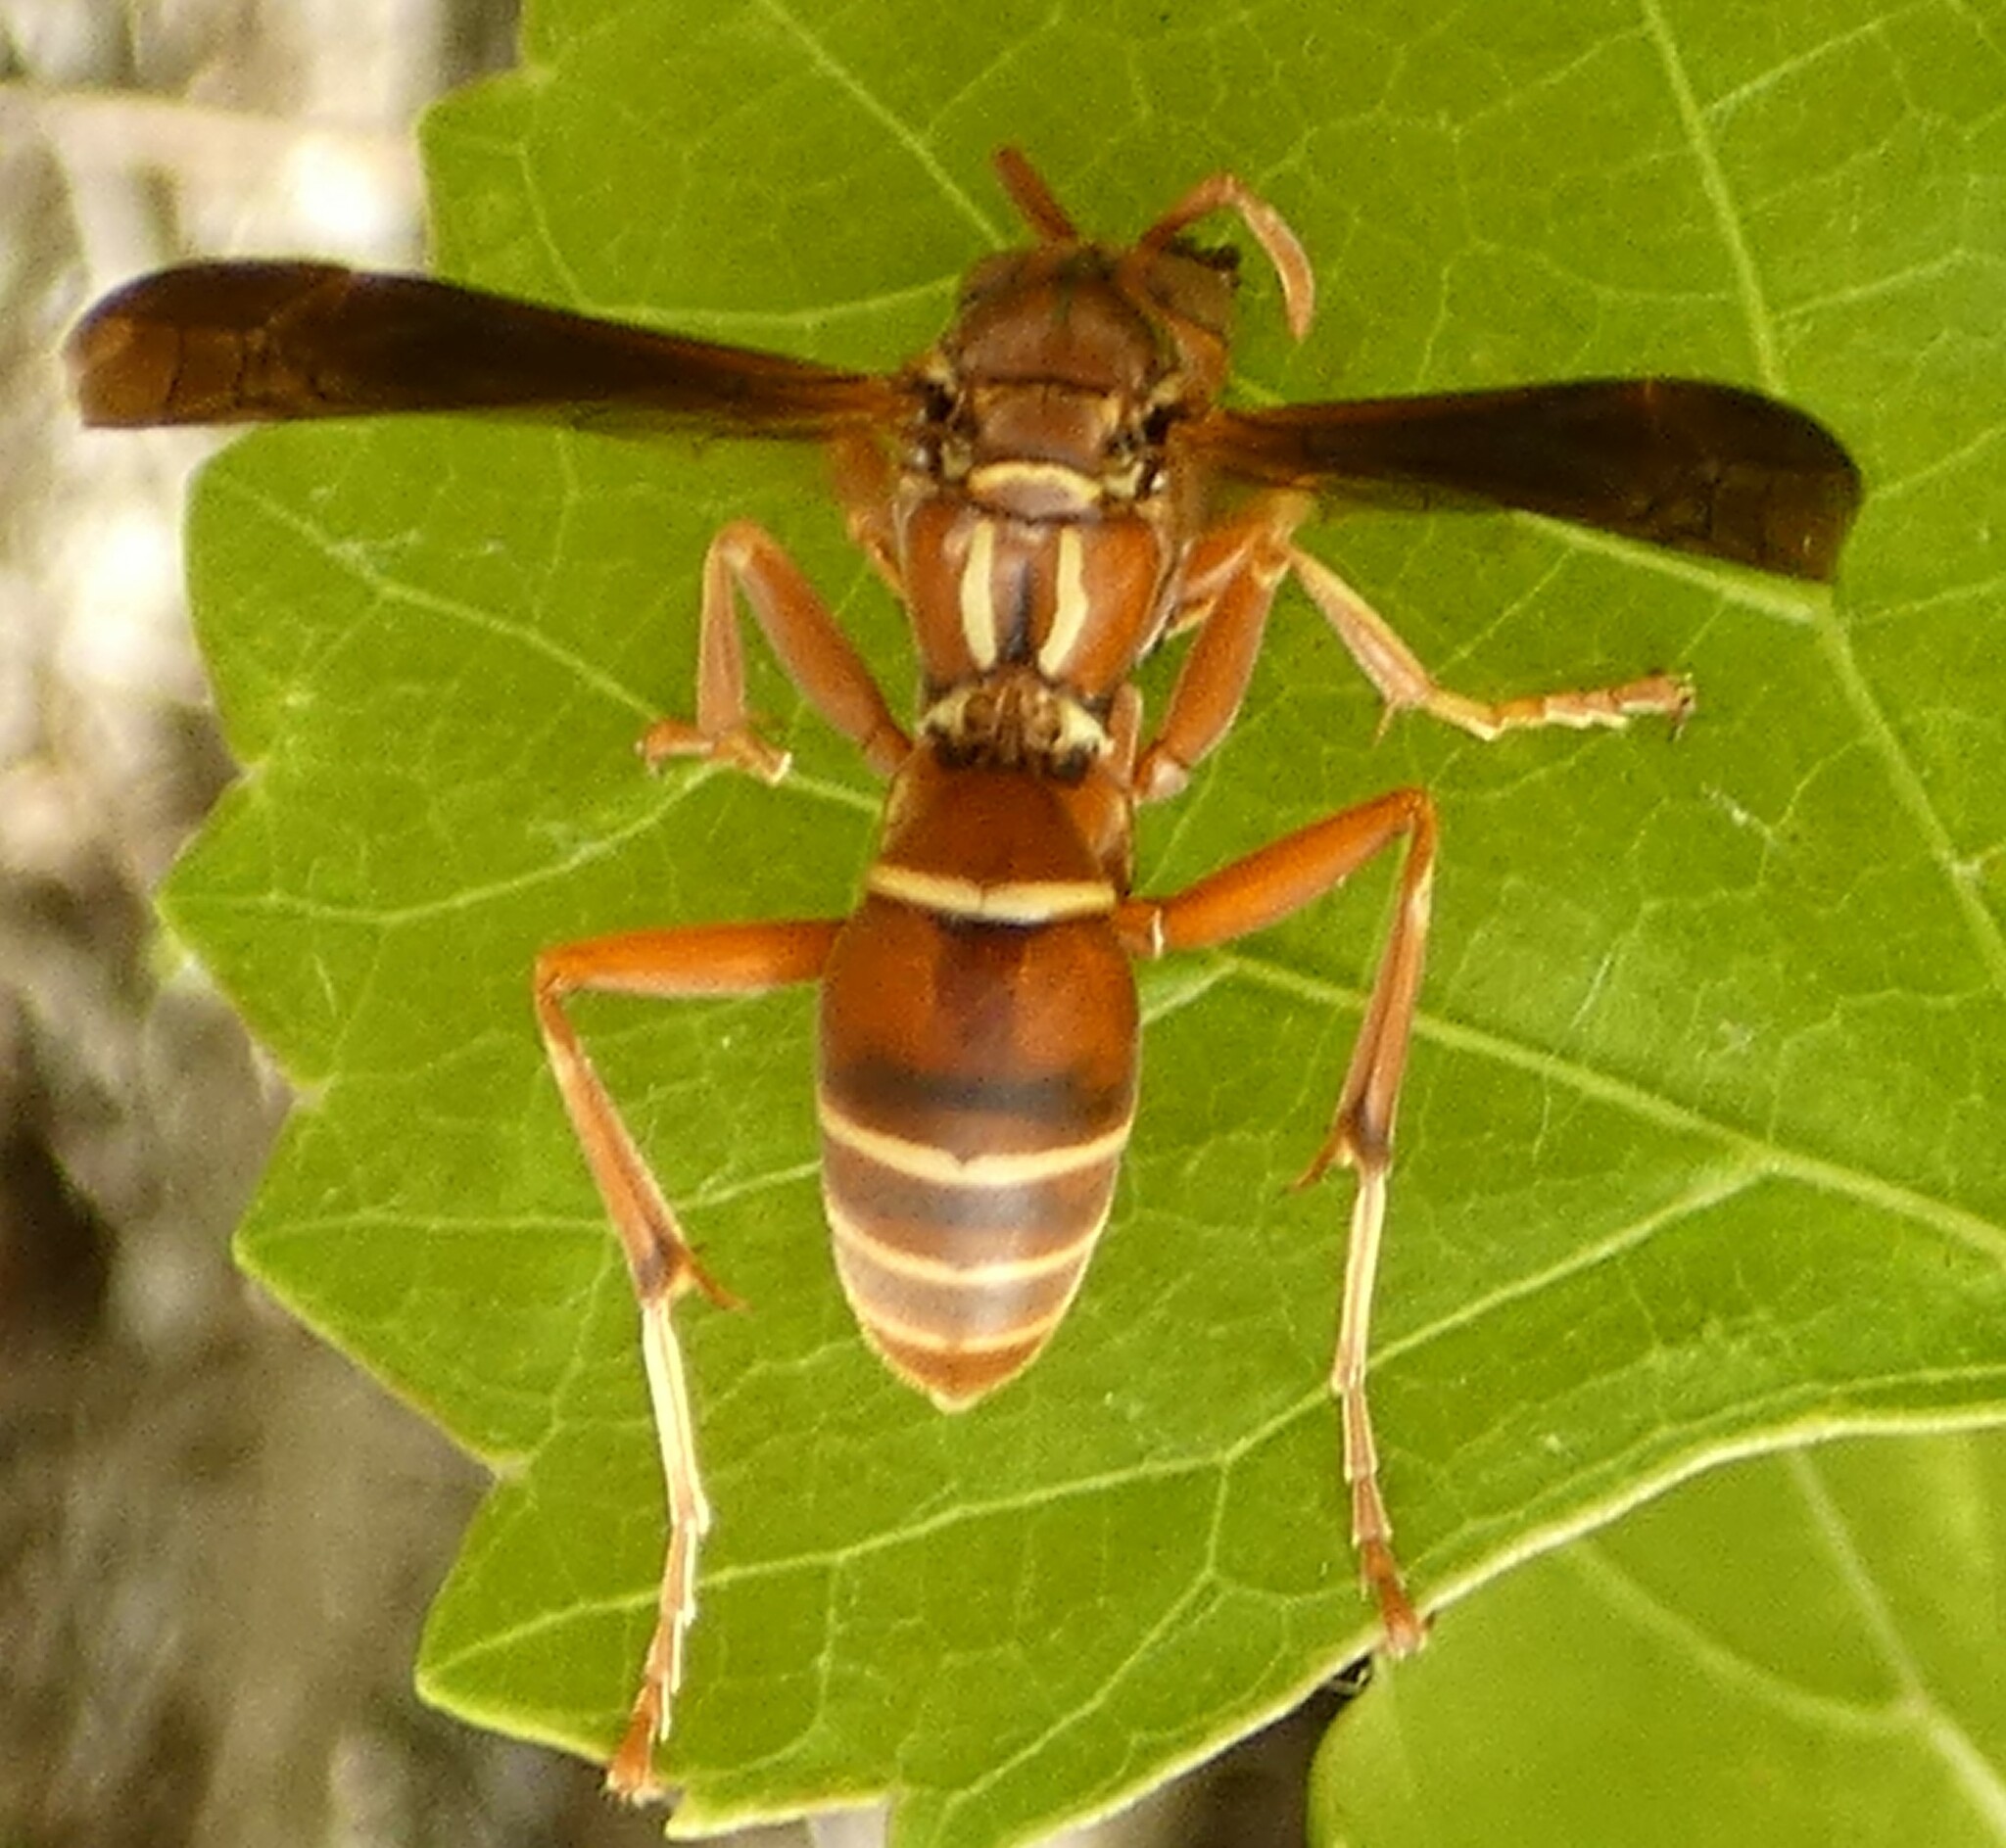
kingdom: Animalia
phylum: Arthropoda
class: Insecta
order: Hymenoptera
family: Eumenidae
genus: Polistes
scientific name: Polistes bellicosus
